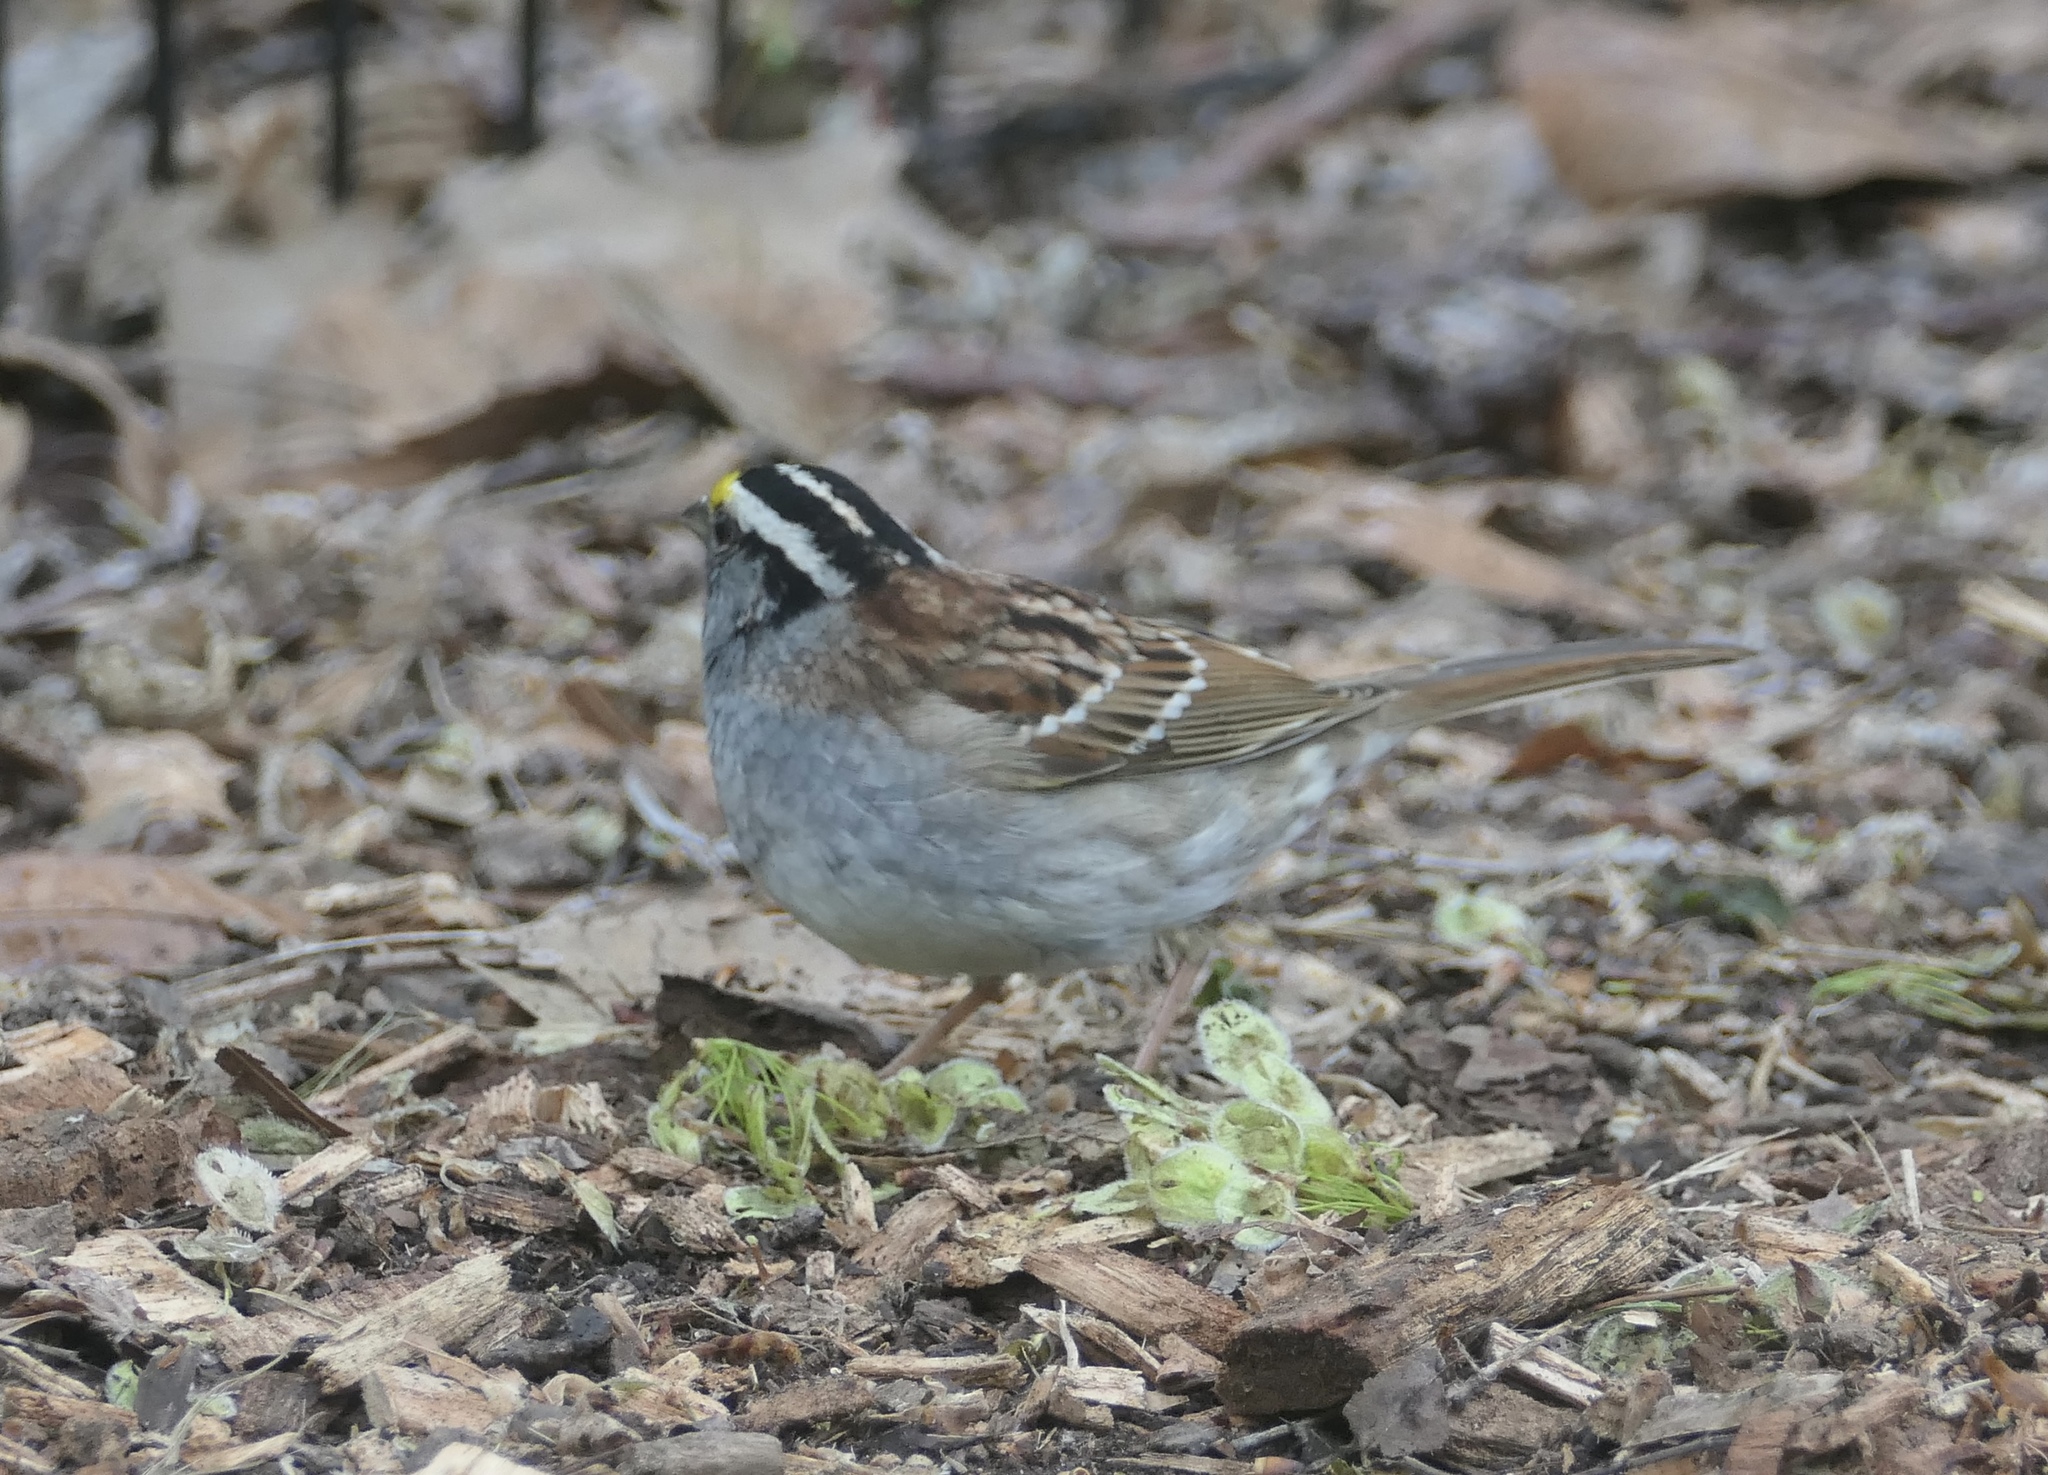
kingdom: Animalia
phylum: Chordata
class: Aves
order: Passeriformes
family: Passerellidae
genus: Zonotrichia
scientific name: Zonotrichia albicollis
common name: White-throated sparrow
